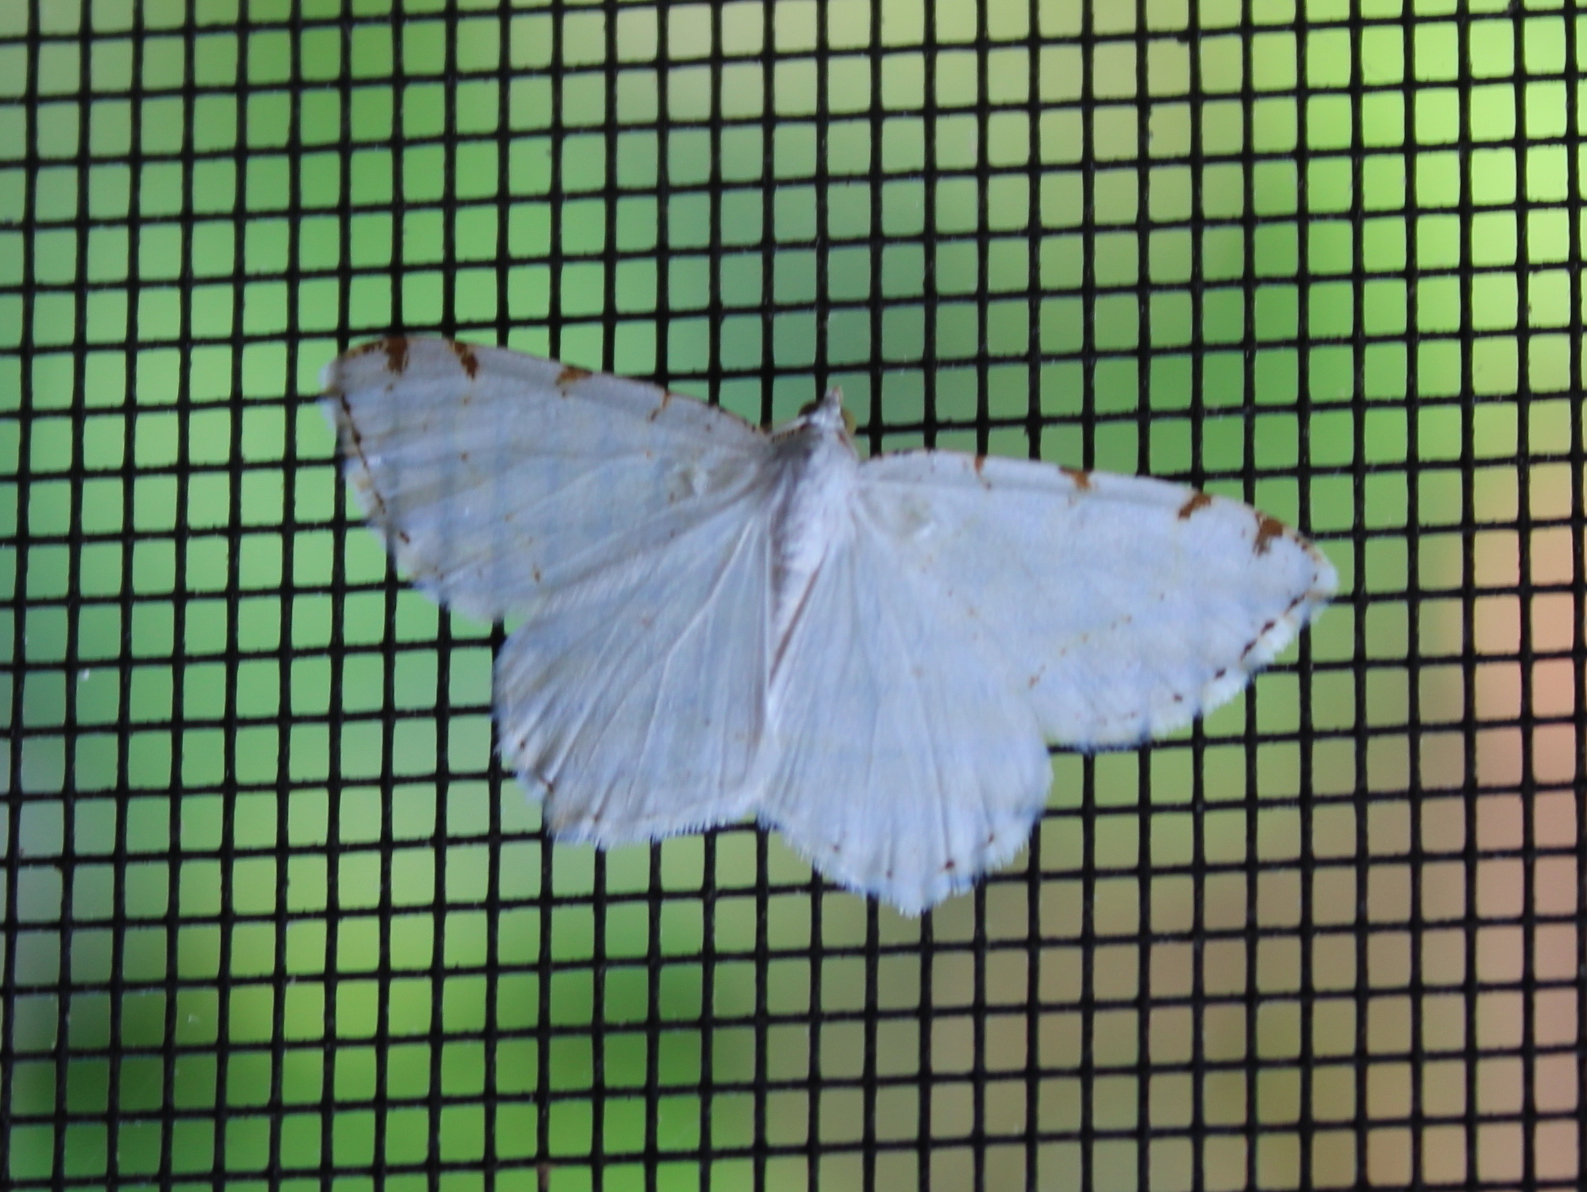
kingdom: Animalia
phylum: Arthropoda
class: Insecta
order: Lepidoptera
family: Geometridae
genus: Macaria
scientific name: Macaria pustularia
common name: Lesser maple spanworm moth
